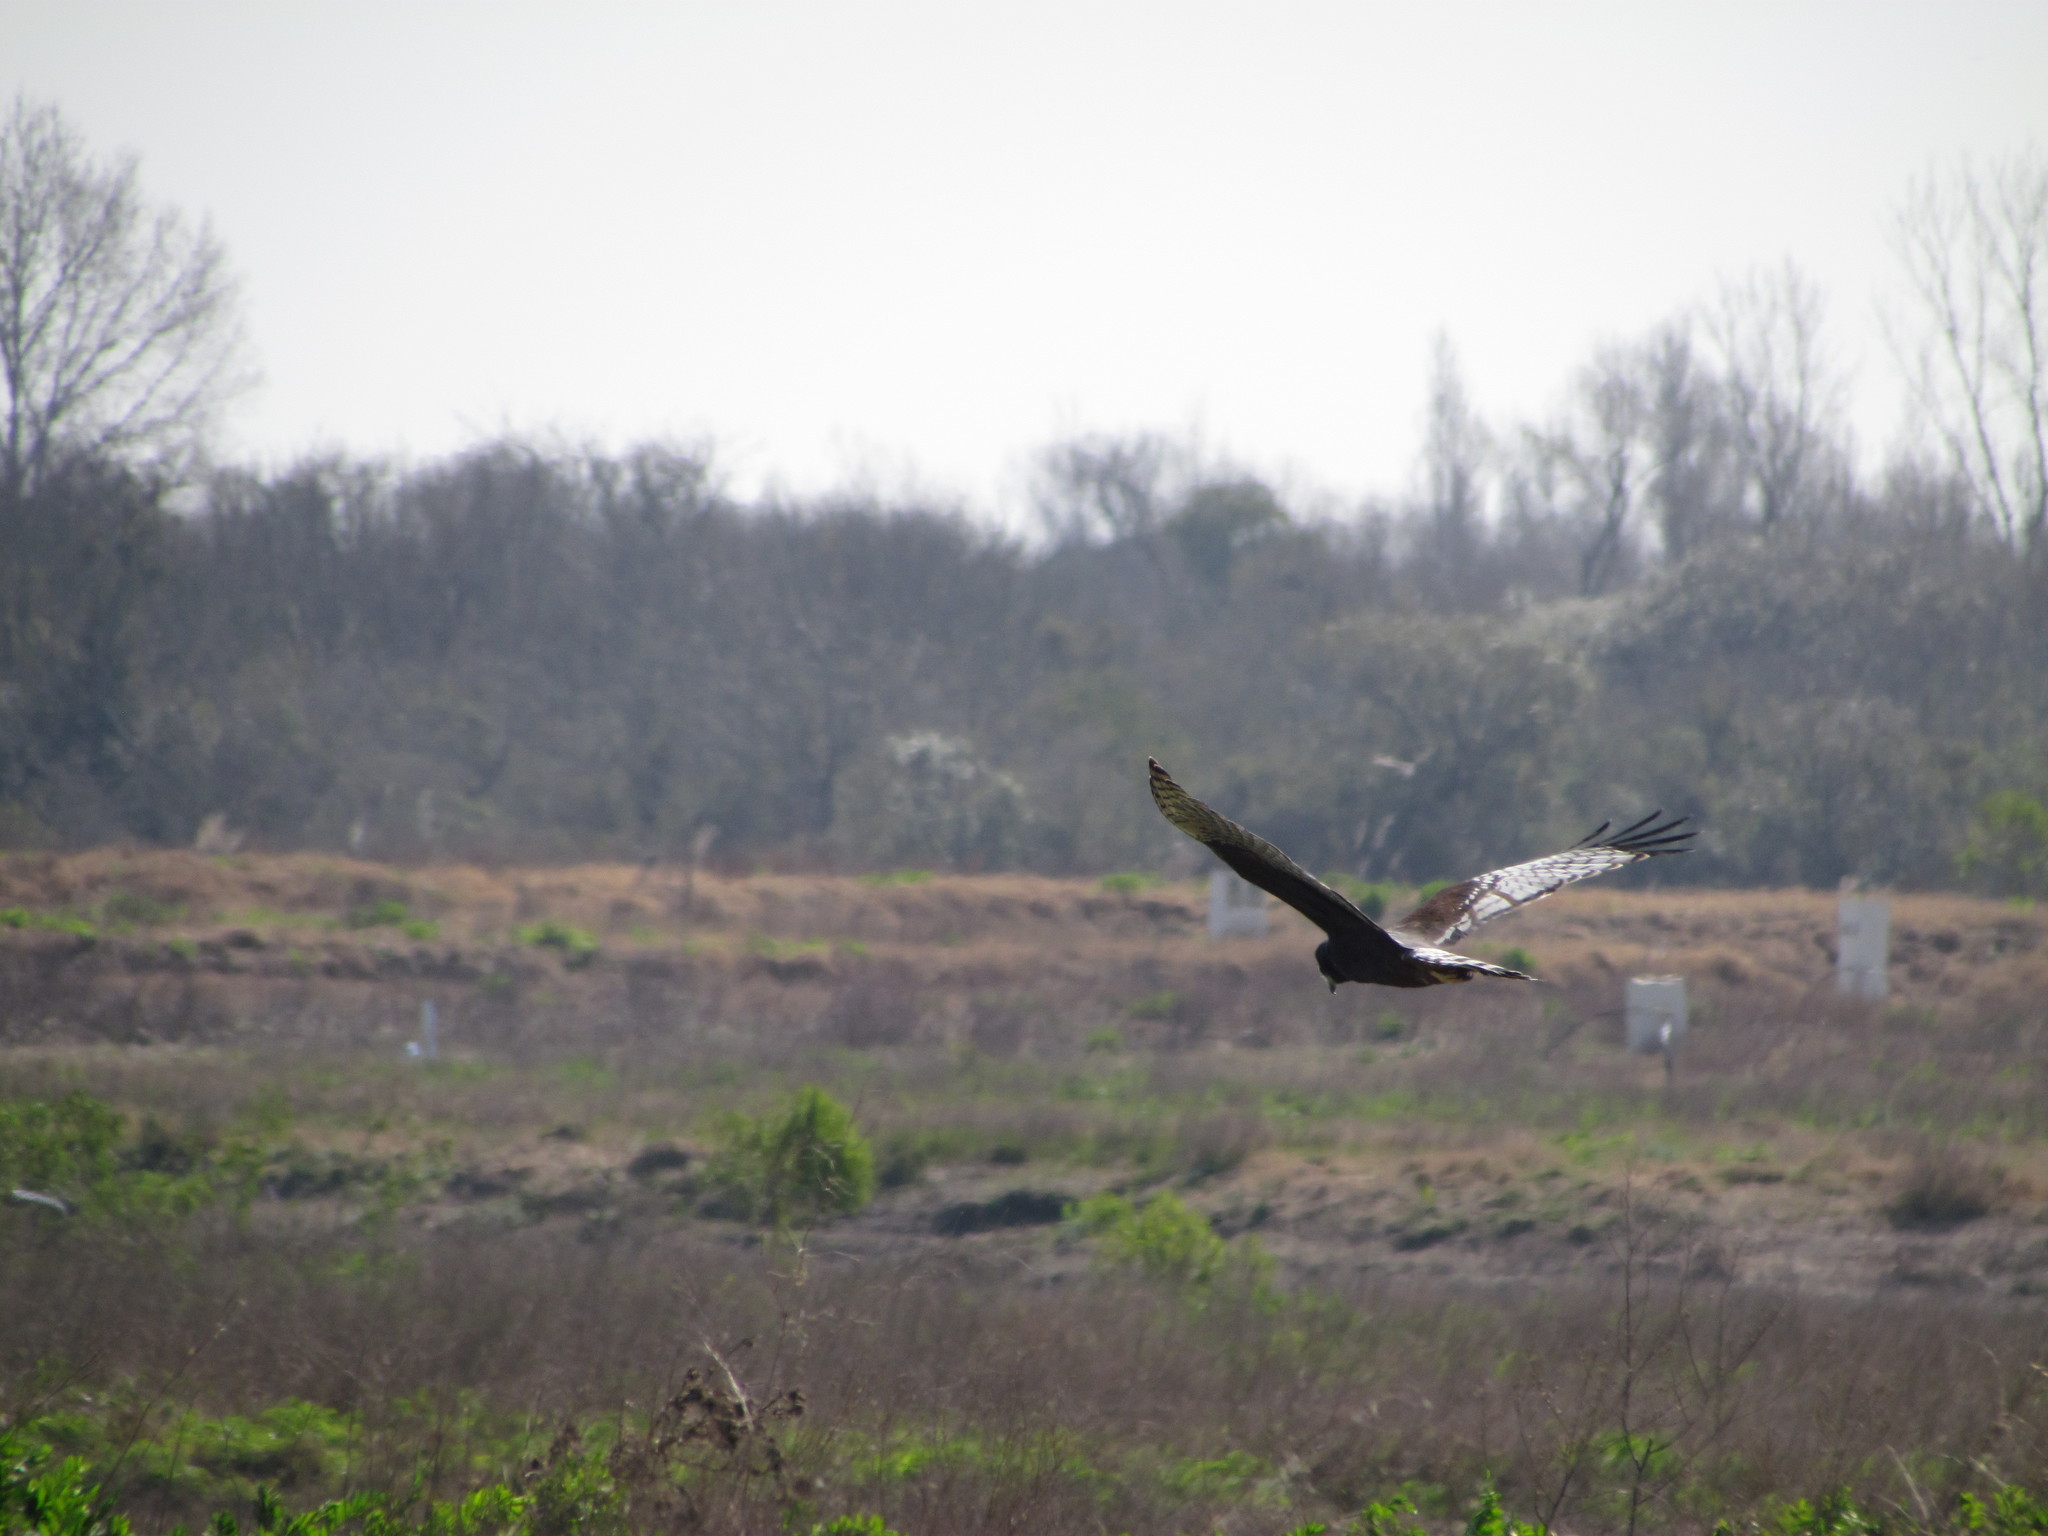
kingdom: Animalia
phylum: Chordata
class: Aves
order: Accipitriformes
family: Accipitridae
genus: Circus
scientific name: Circus buffoni
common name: Long-winged harrier
